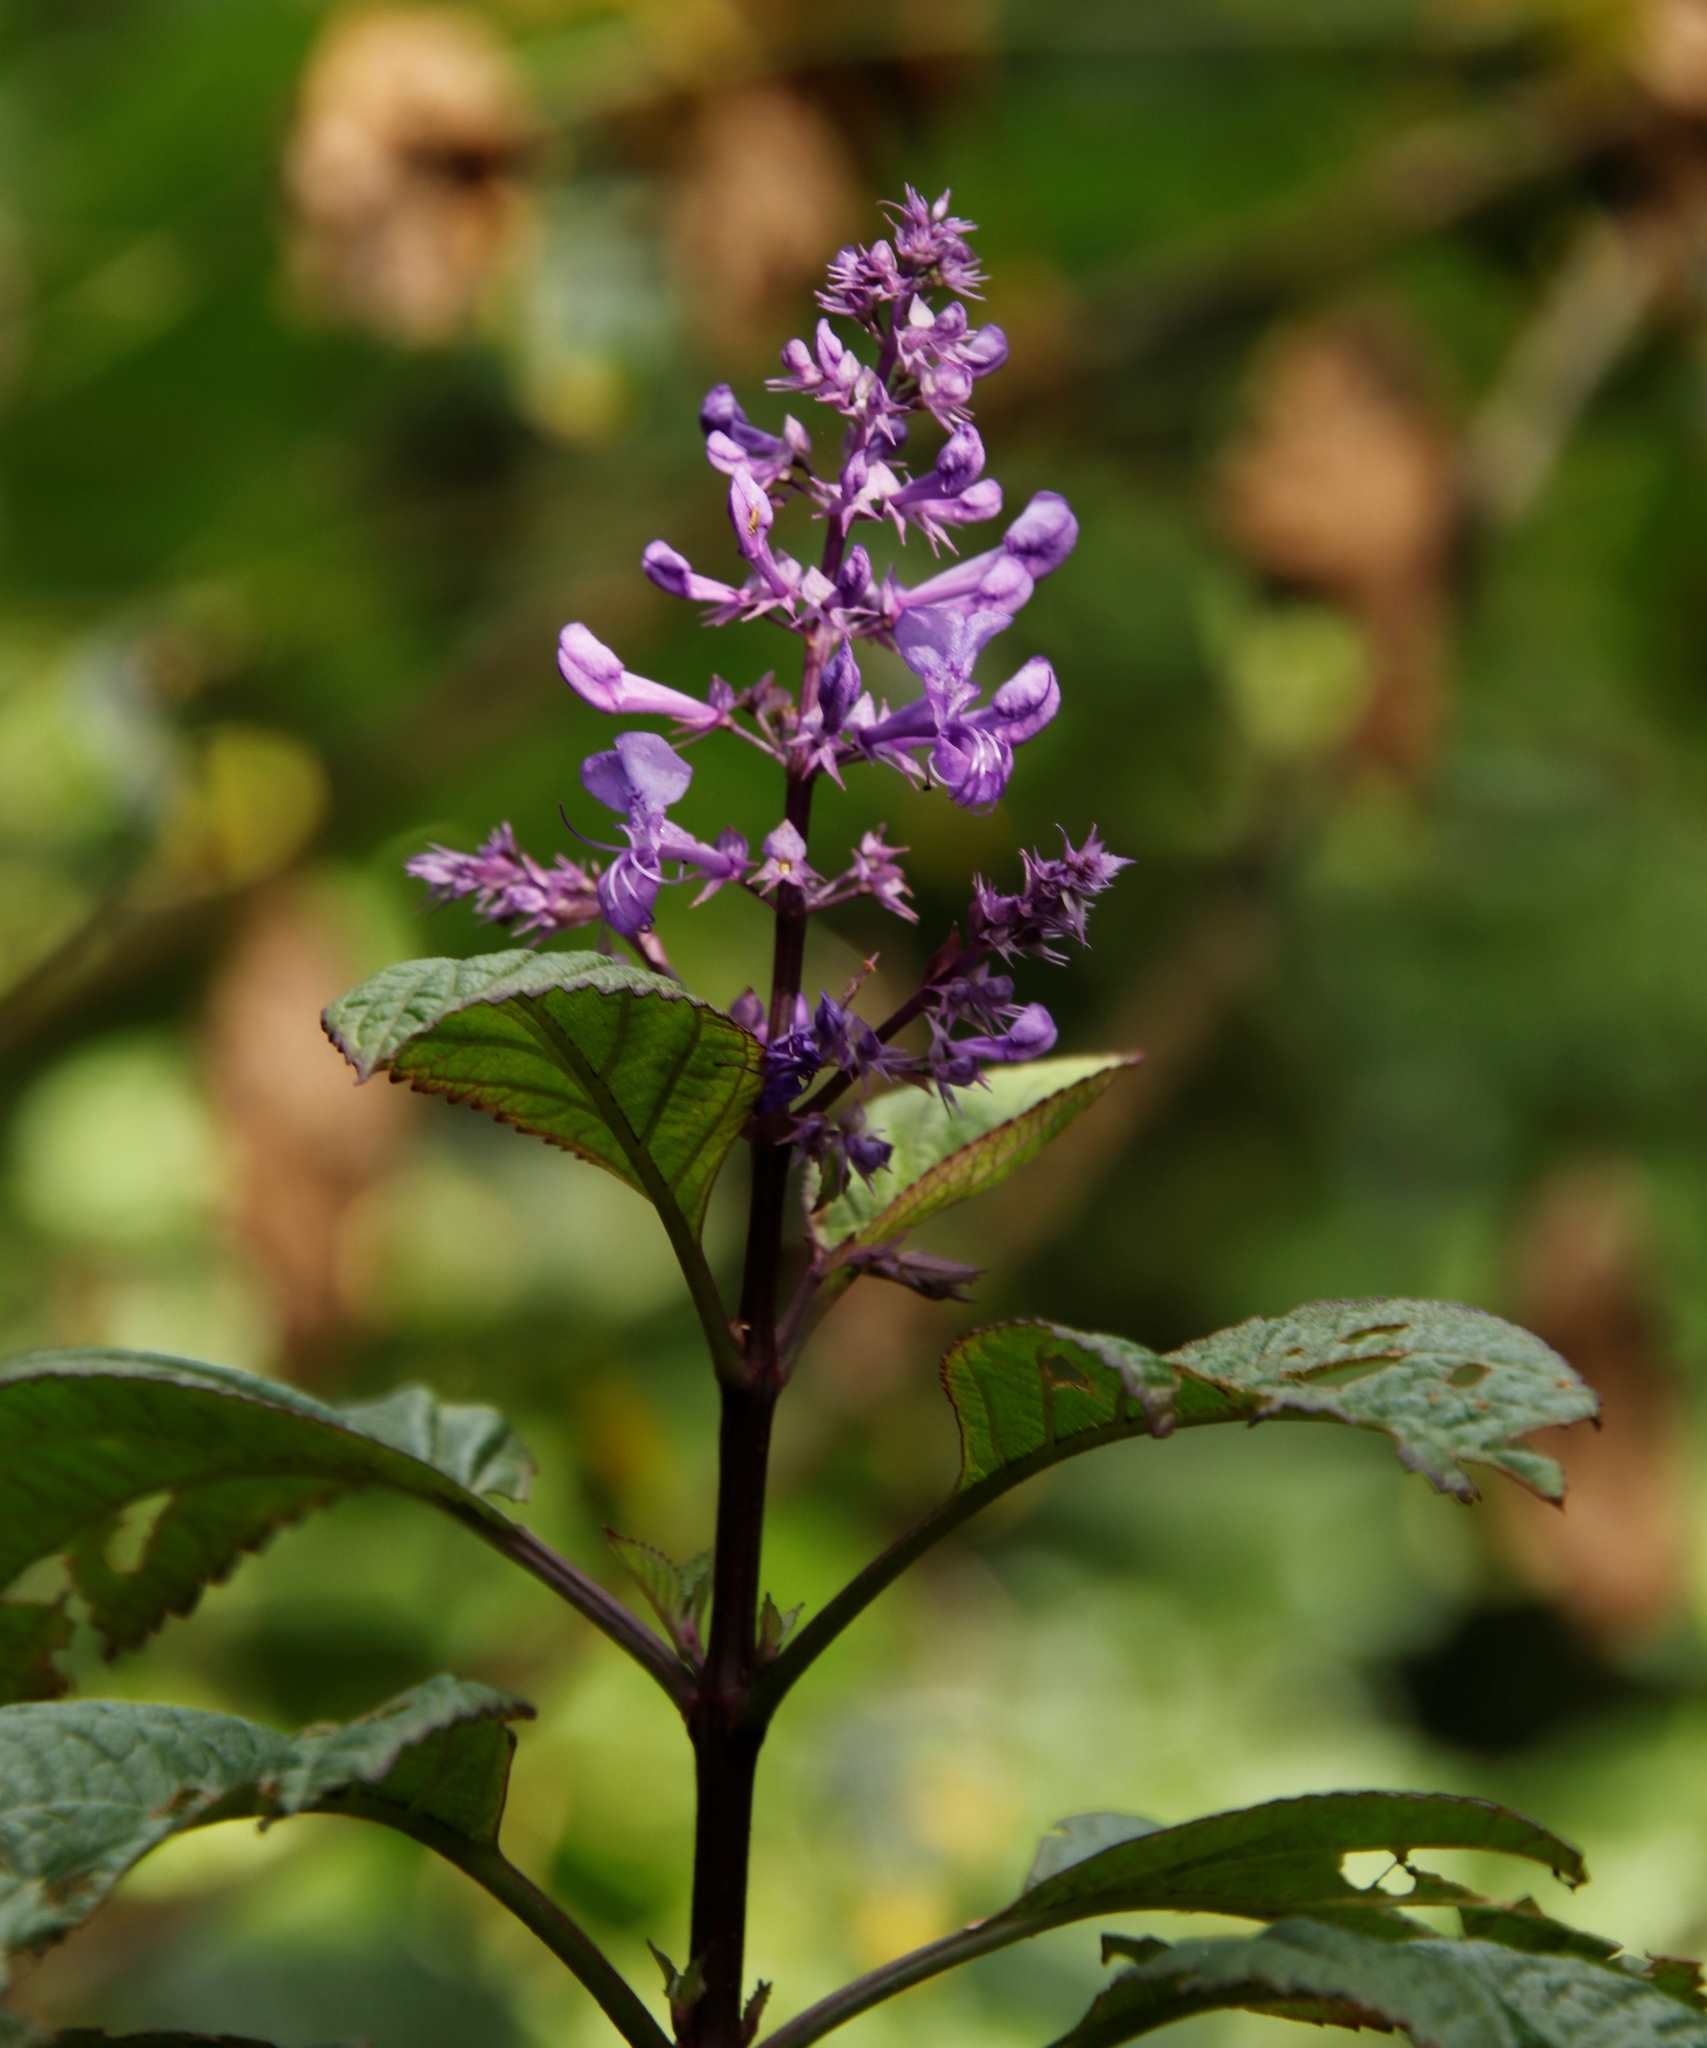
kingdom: Plantae
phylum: Tracheophyta
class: Magnoliopsida
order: Lamiales
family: Lamiaceae
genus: Plectranthus
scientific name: Plectranthus ecklonii
